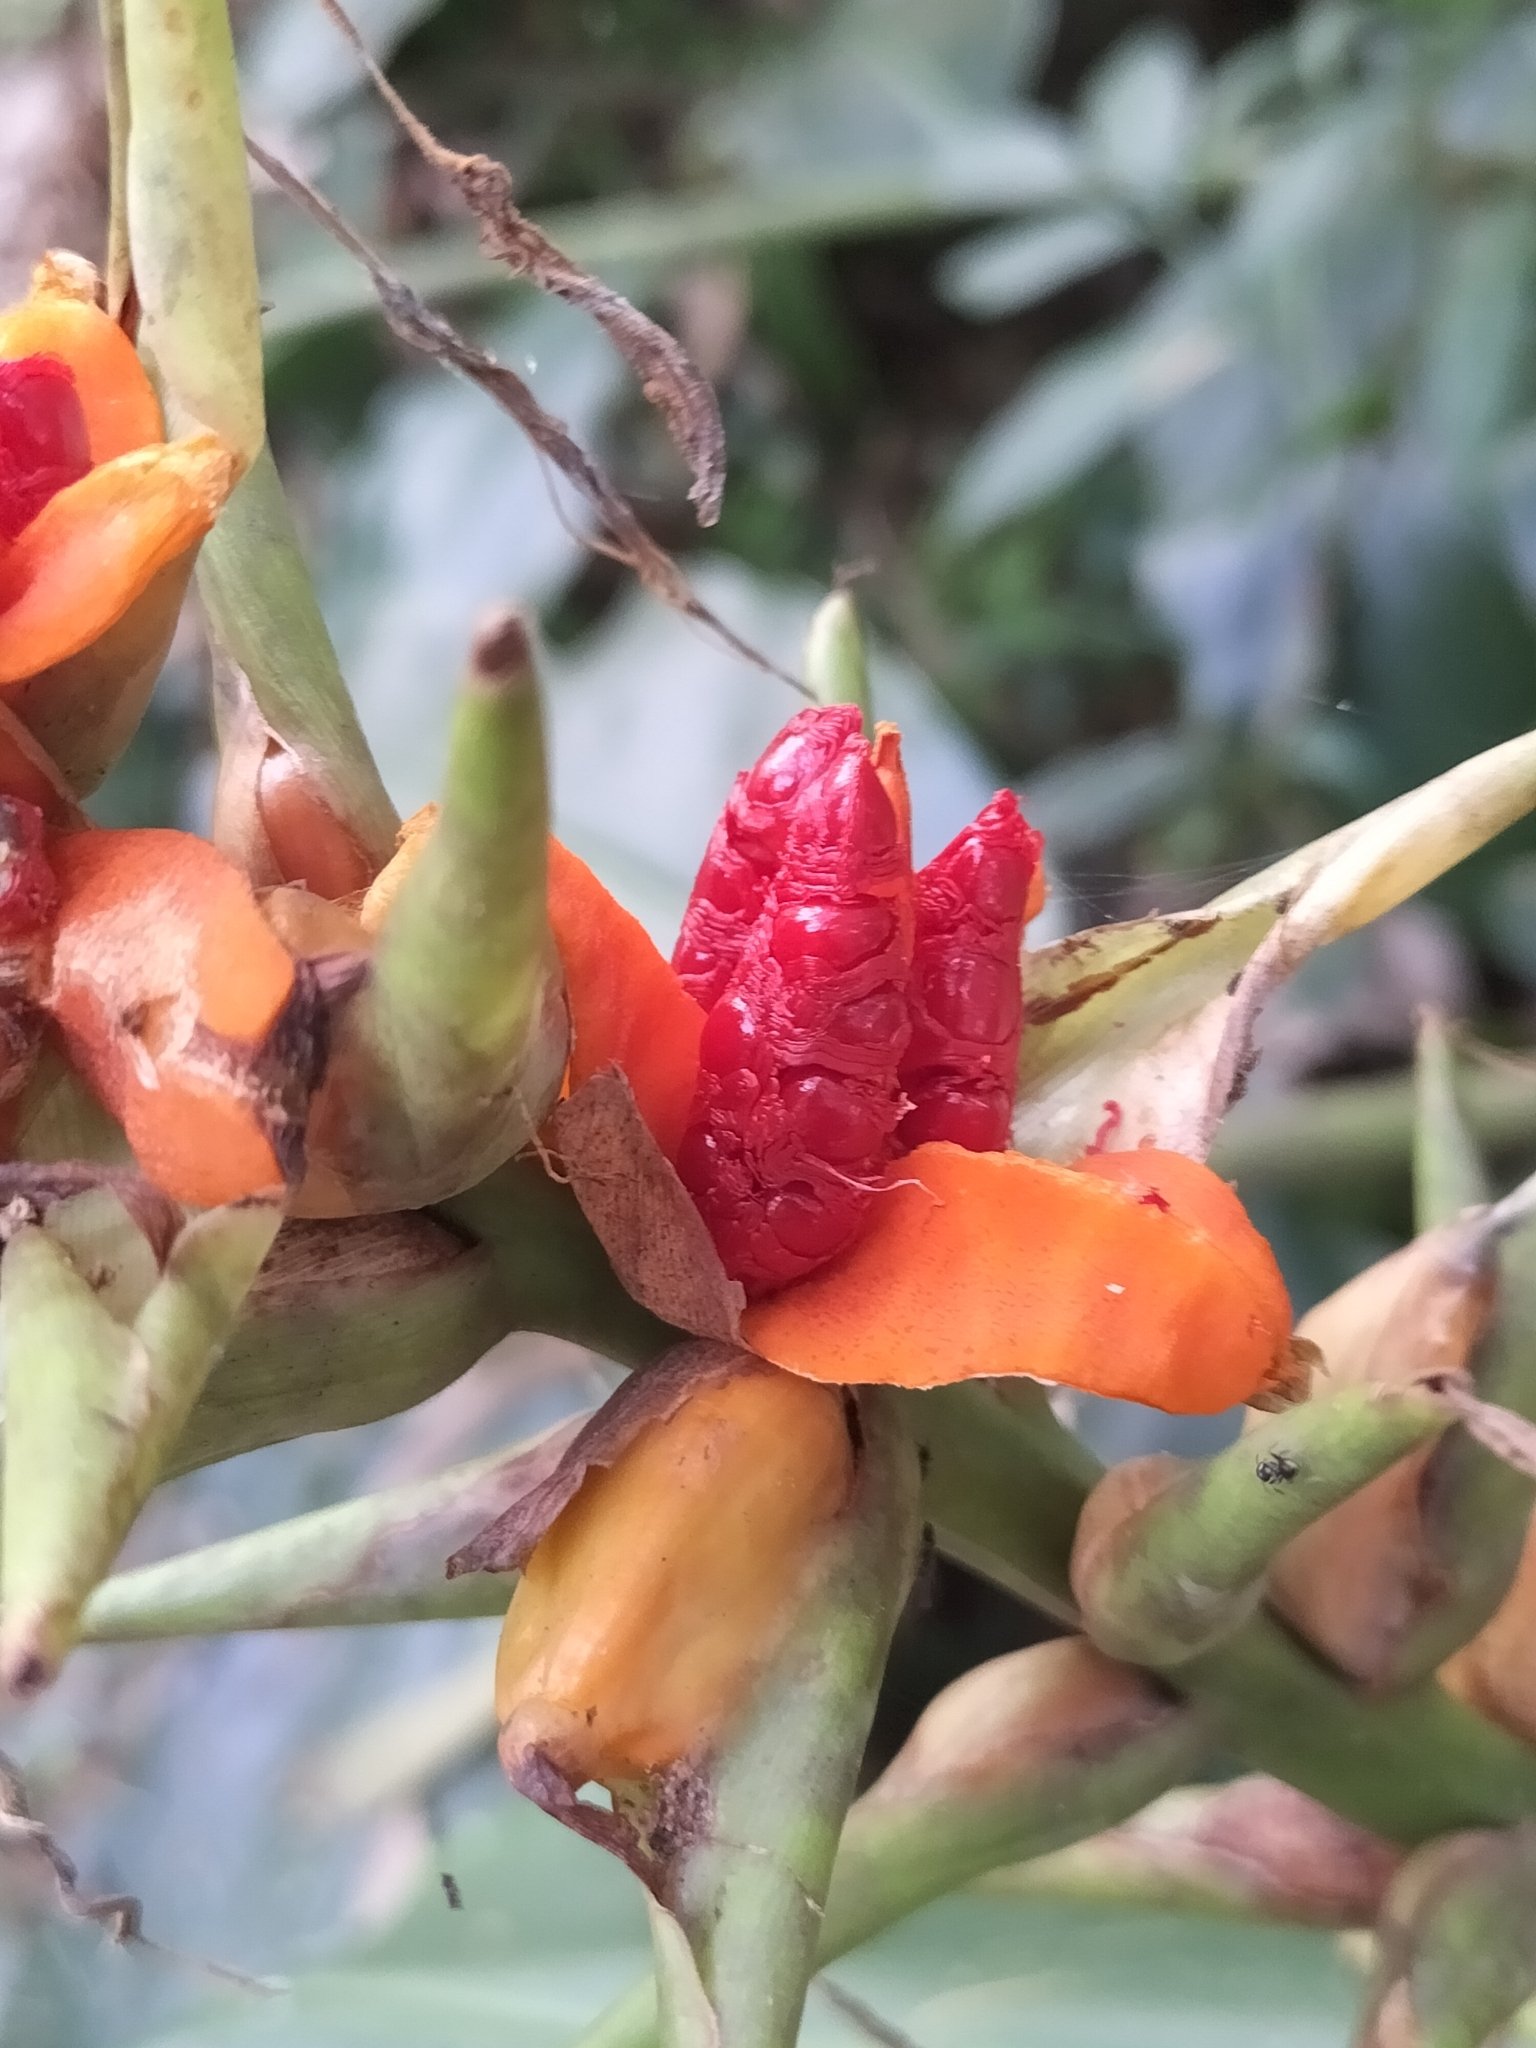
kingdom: Plantae
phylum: Tracheophyta
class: Liliopsida
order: Zingiberales
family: Zingiberaceae
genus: Hedychium
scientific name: Hedychium gardnerianum
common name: Himalayan ginger
